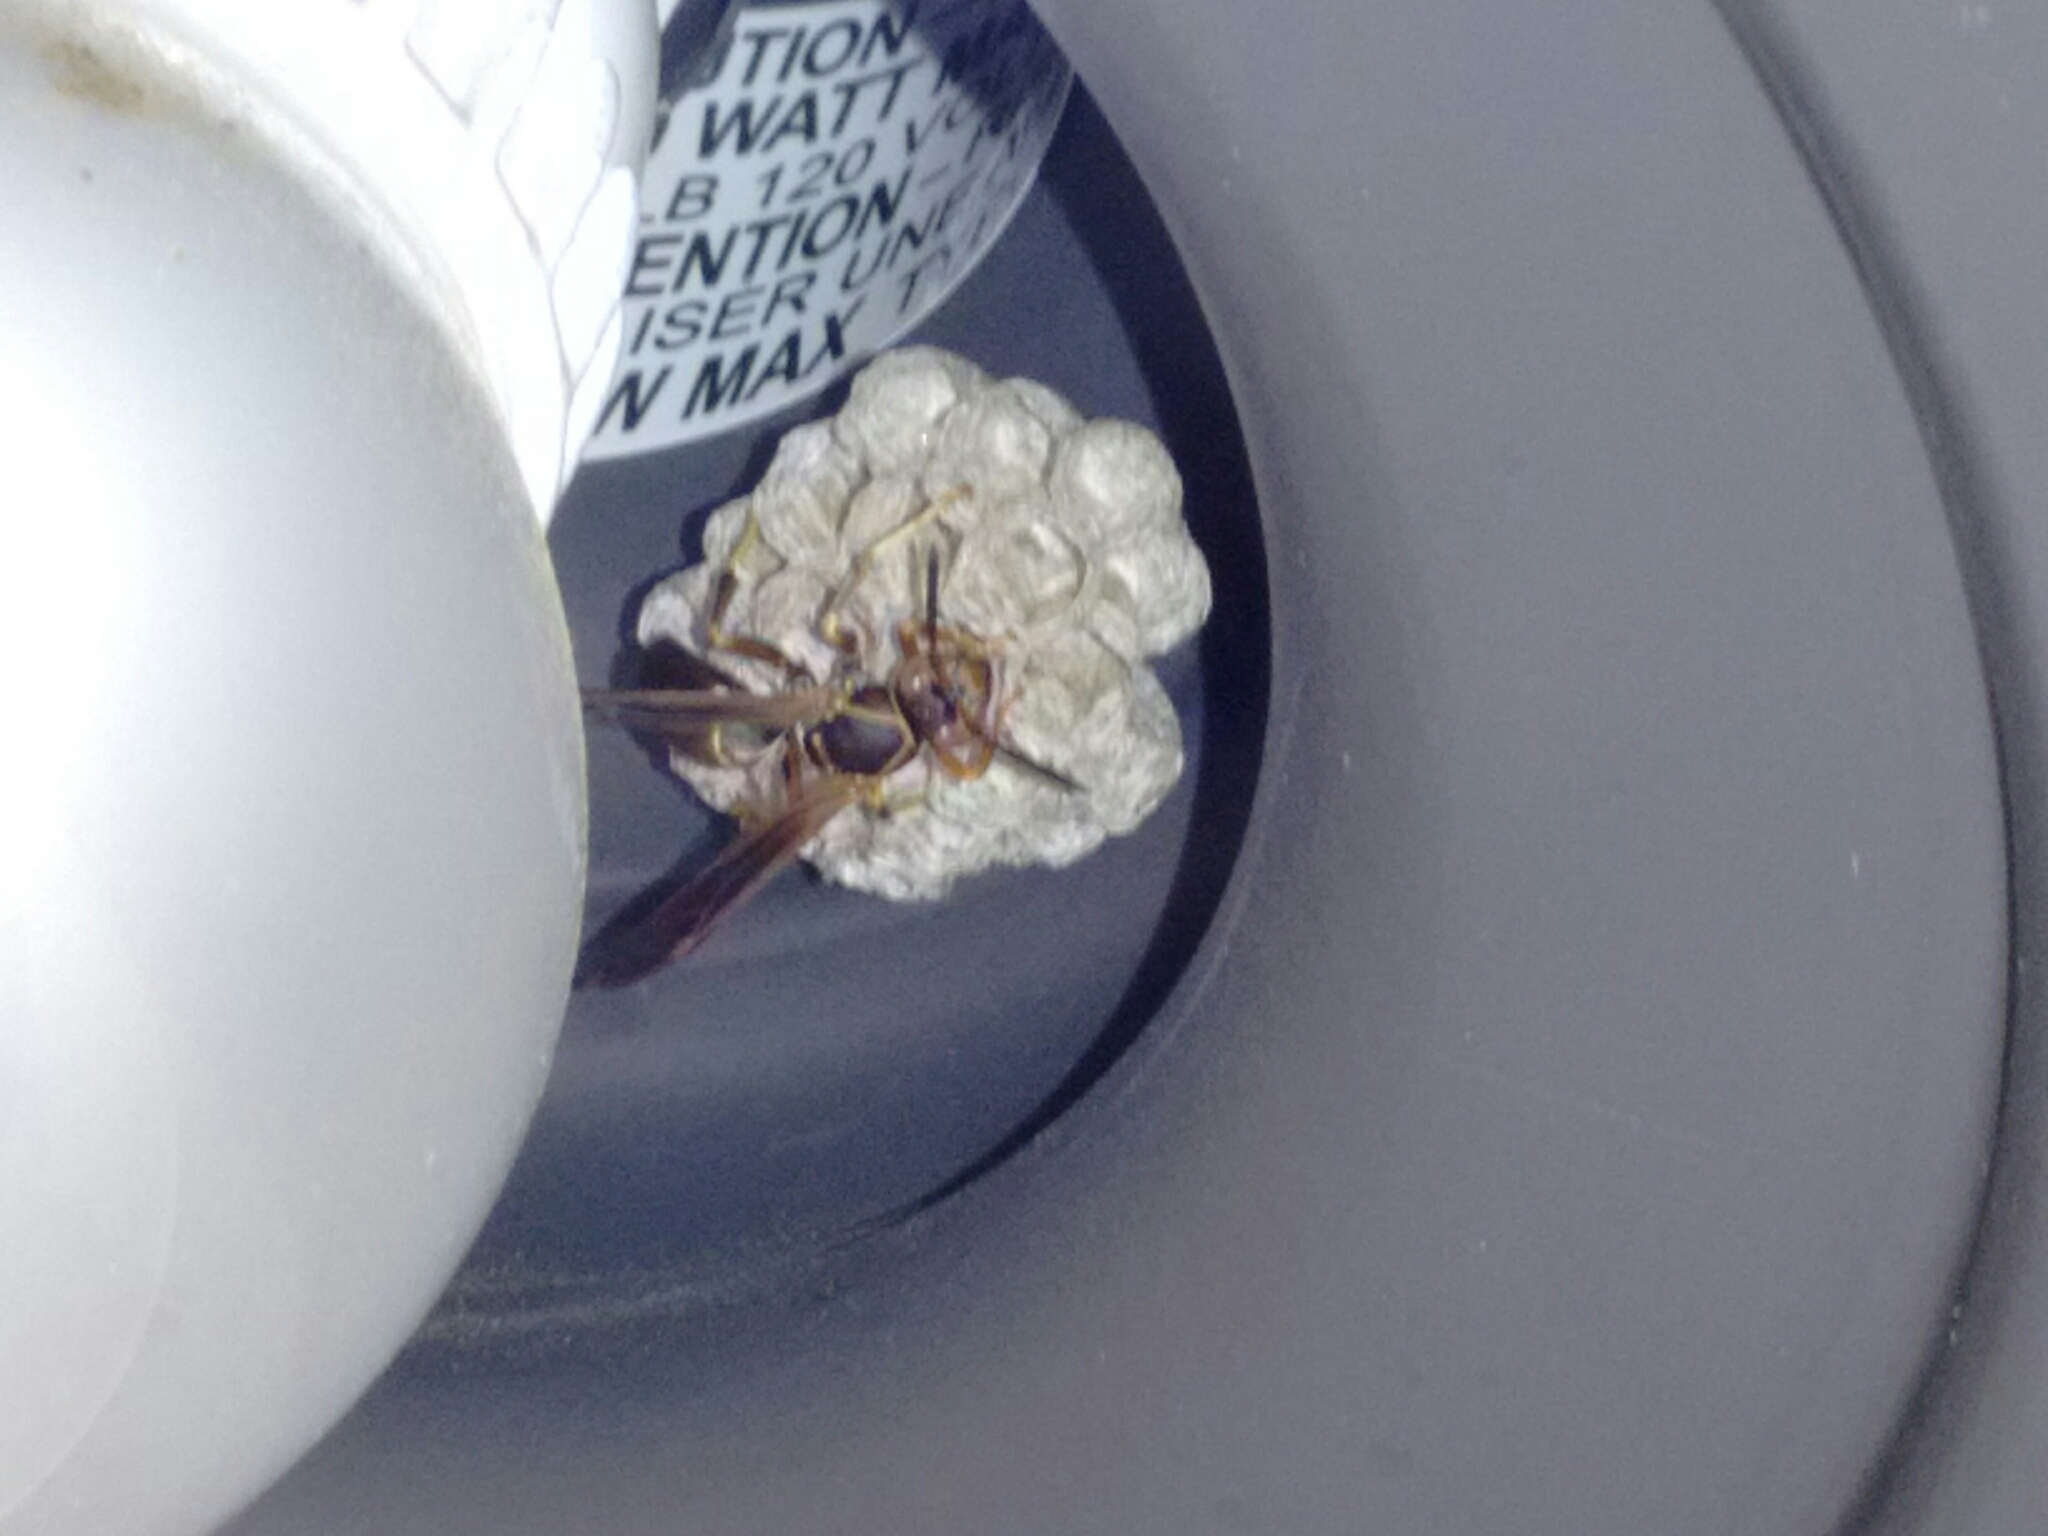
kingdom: Animalia
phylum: Arthropoda
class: Insecta
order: Hymenoptera
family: Eumenidae
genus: Polistes
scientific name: Polistes fuscatus
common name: Dark paper wasp
